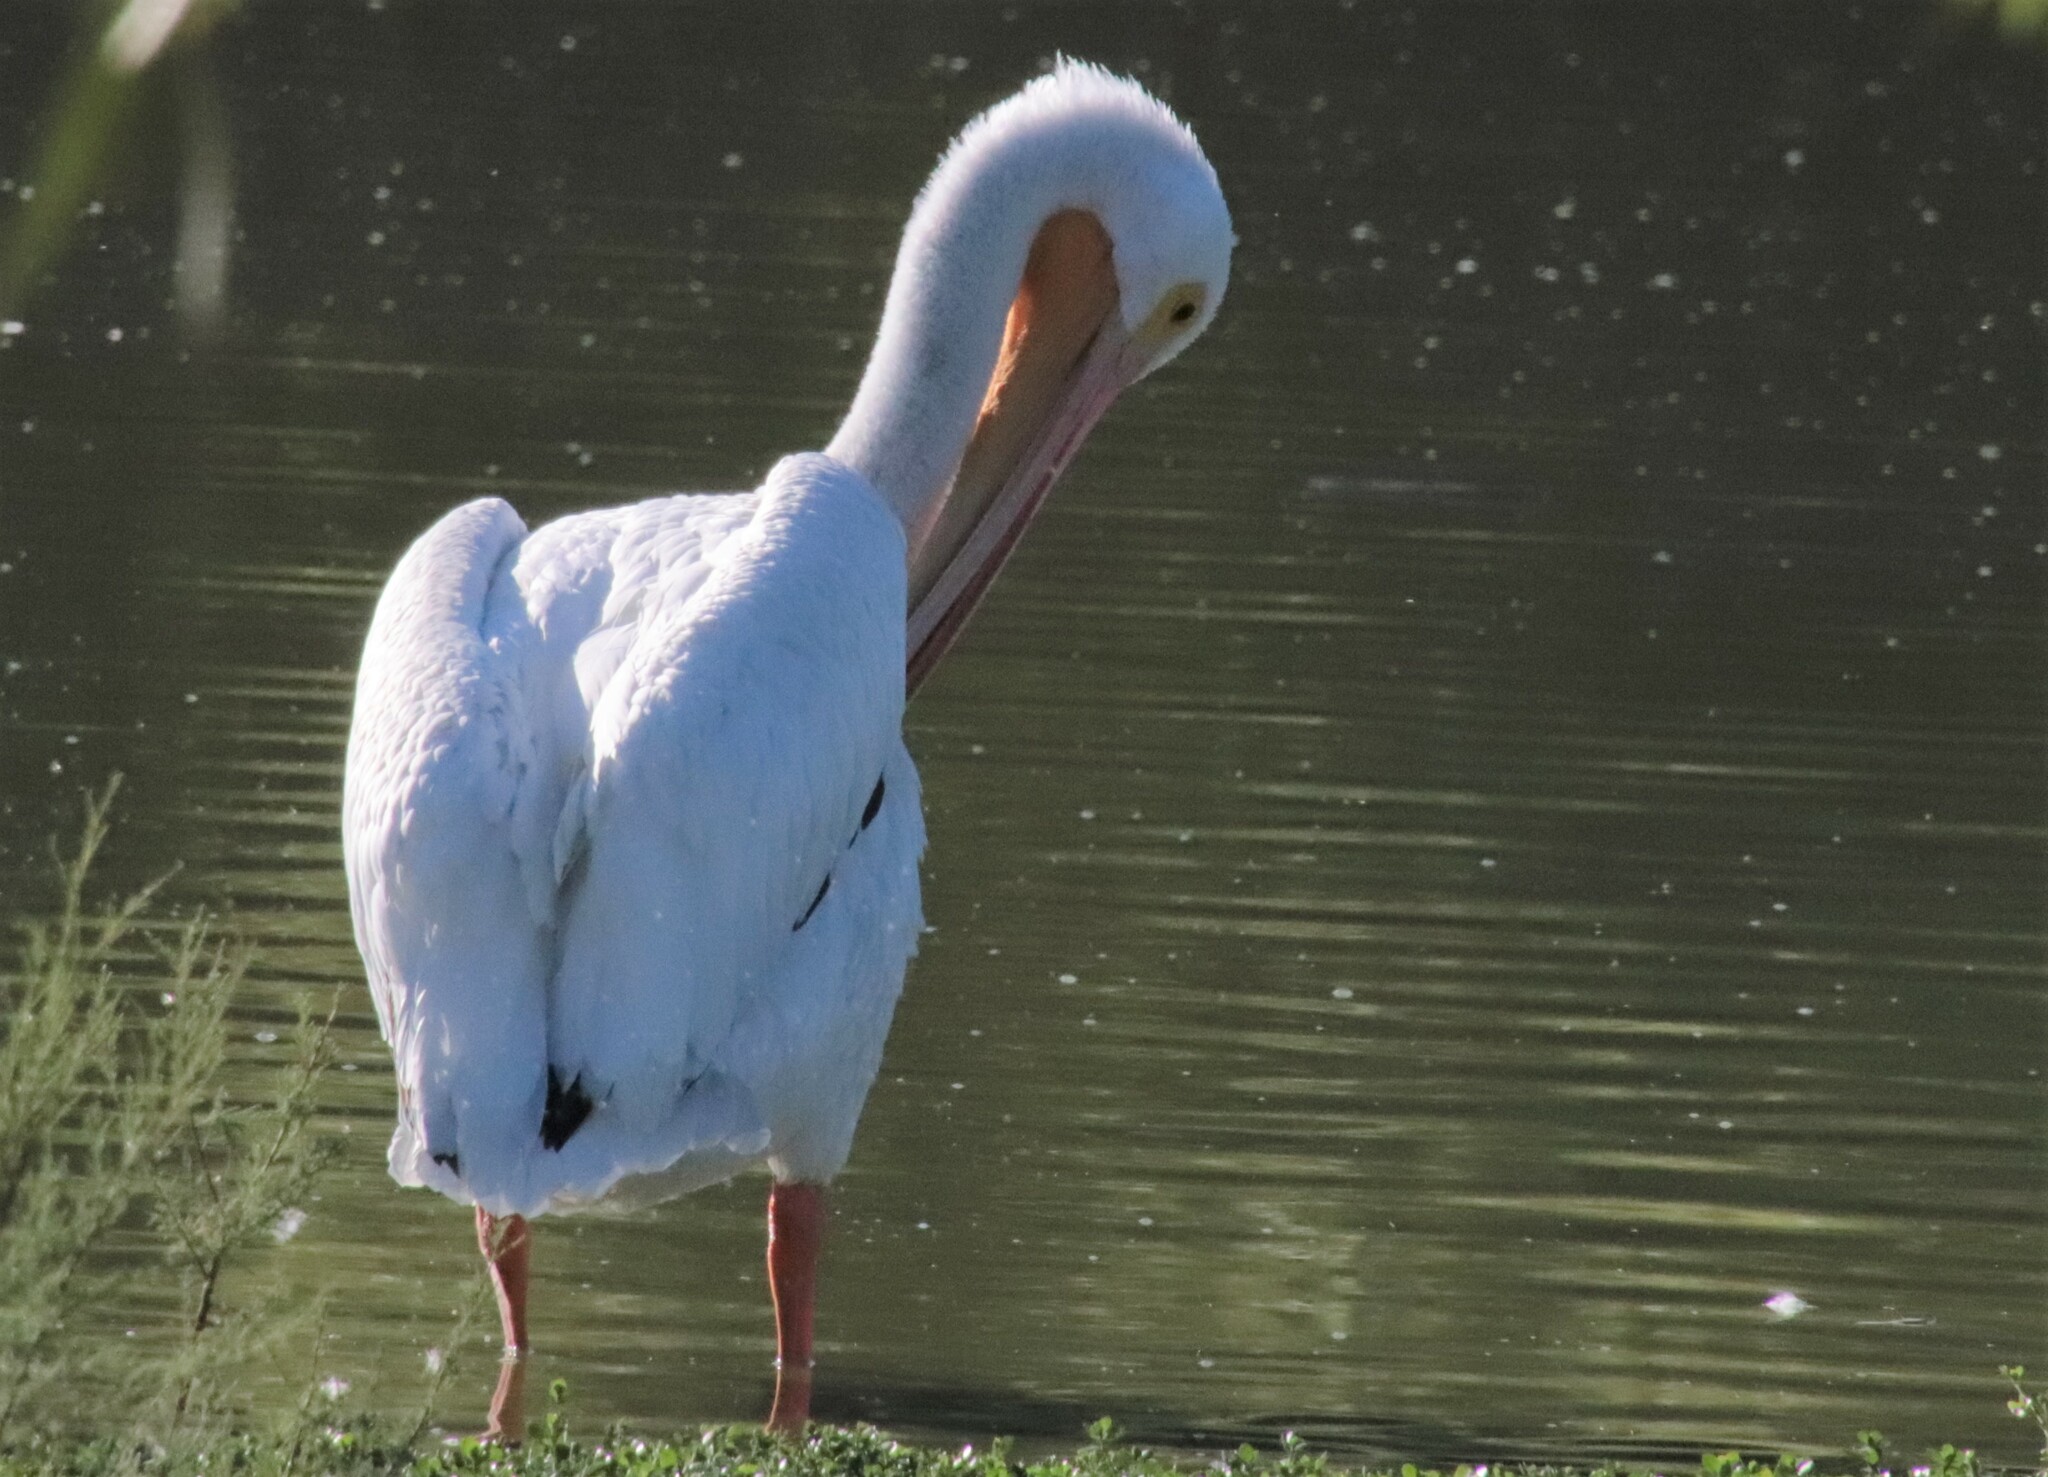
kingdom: Animalia
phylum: Chordata
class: Aves
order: Pelecaniformes
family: Pelecanidae
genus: Pelecanus
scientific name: Pelecanus erythrorhynchos
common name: American white pelican
